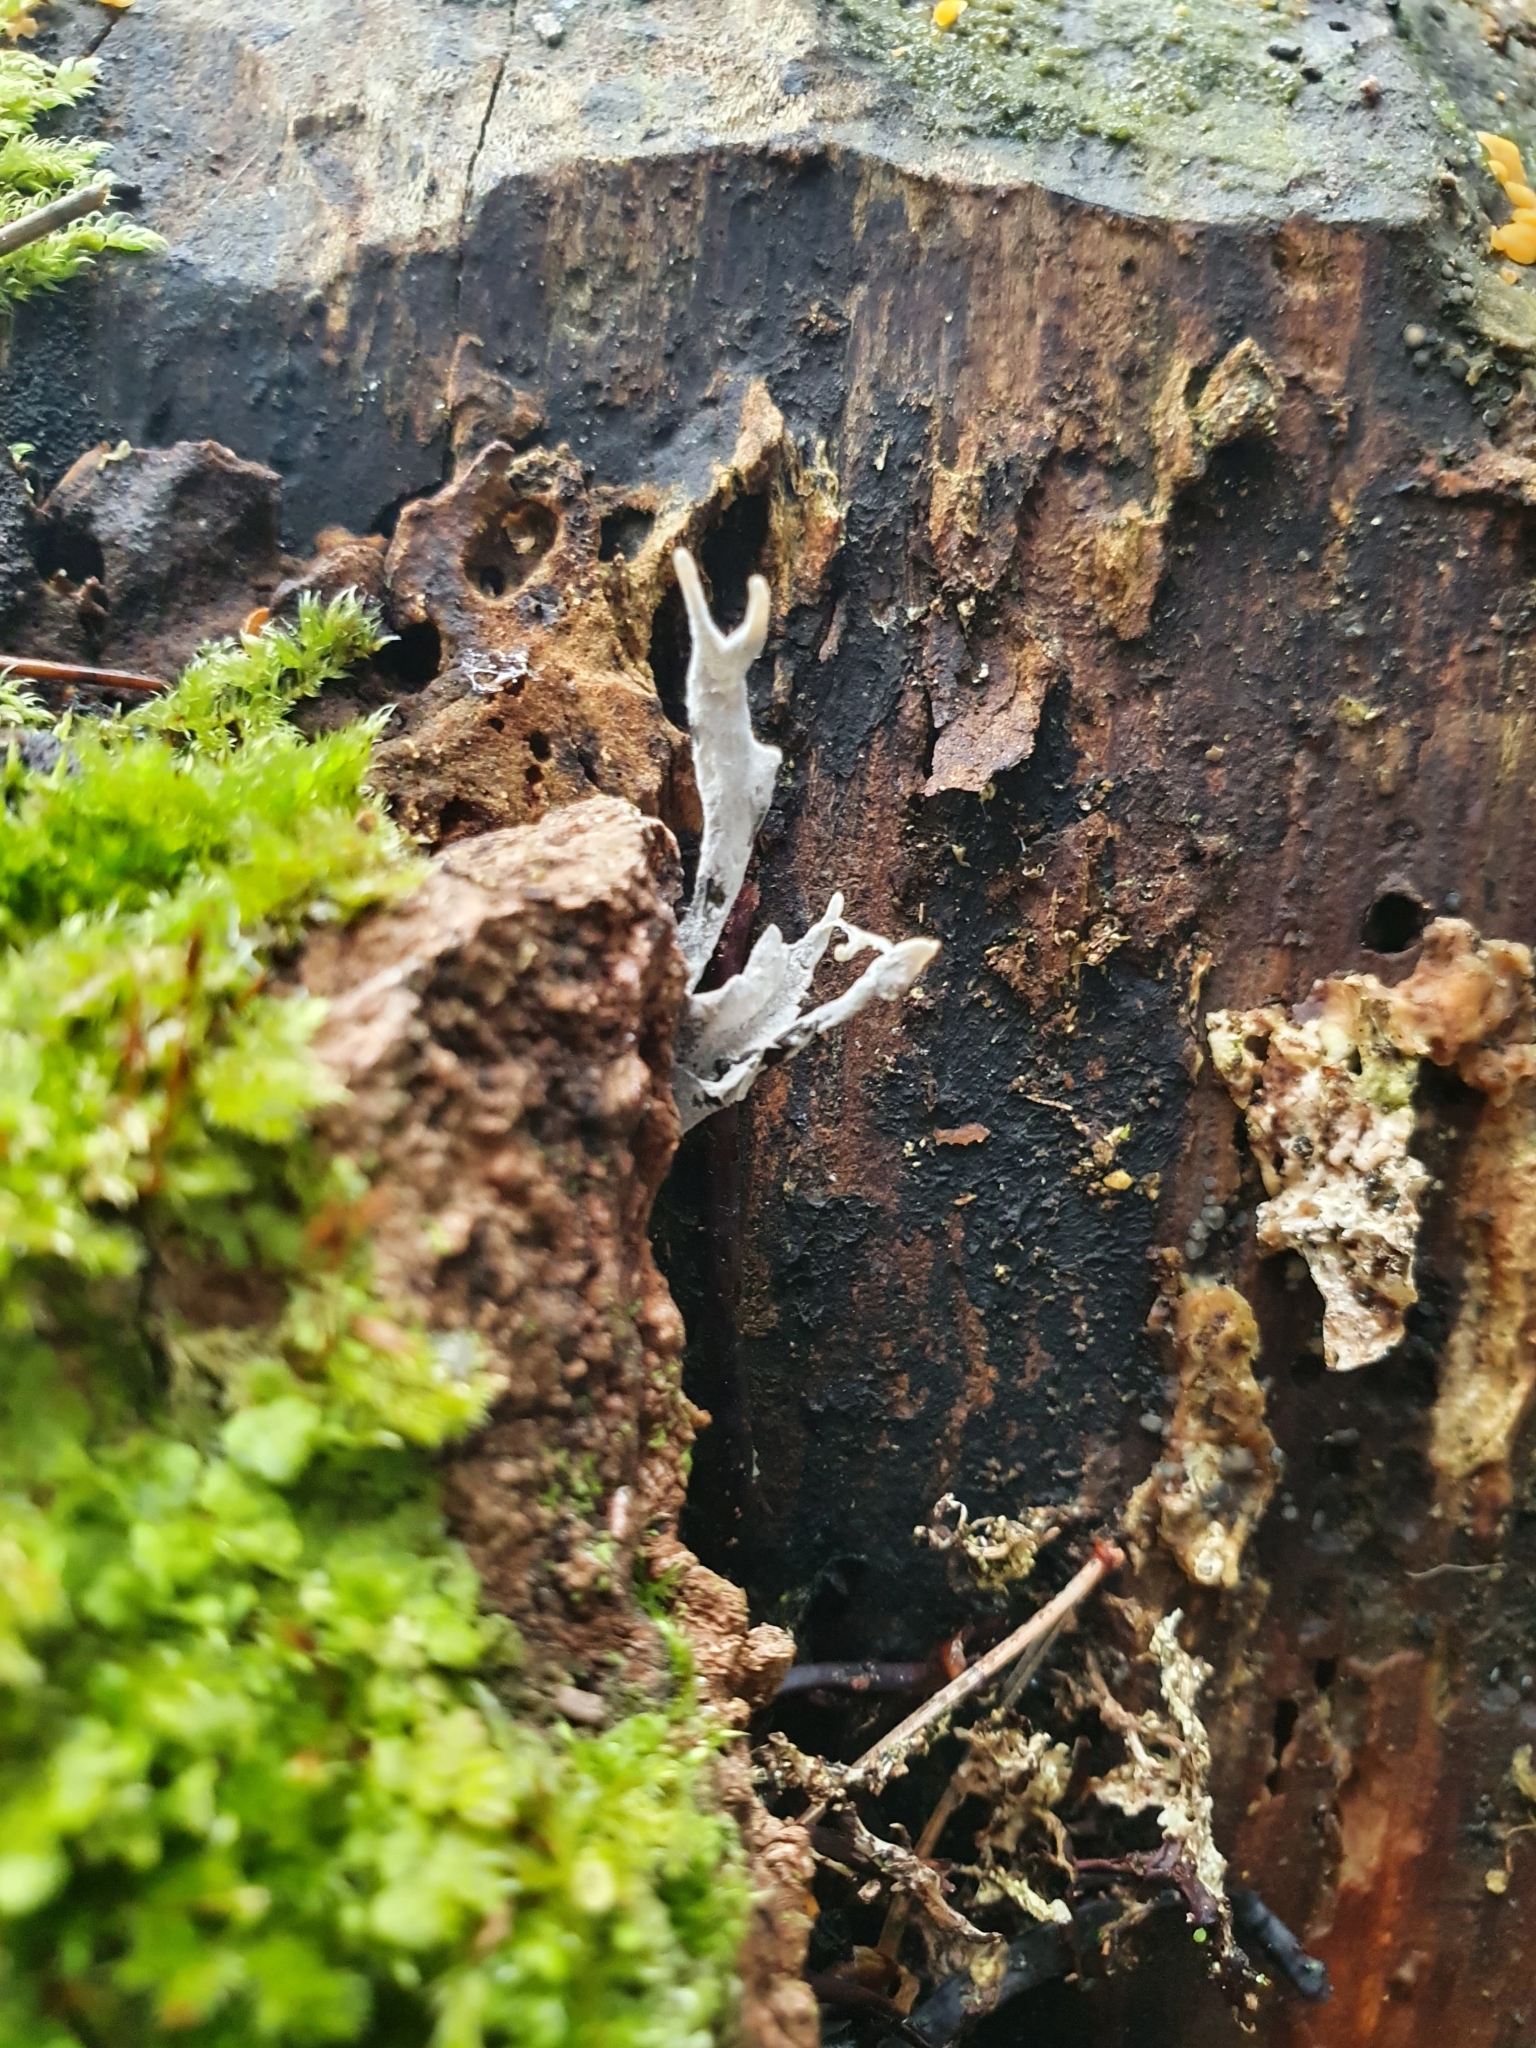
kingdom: Fungi
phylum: Ascomycota
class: Sordariomycetes
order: Xylariales
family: Xylariaceae
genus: Xylaria
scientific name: Xylaria hypoxylon
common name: Candle-snuff fungus
